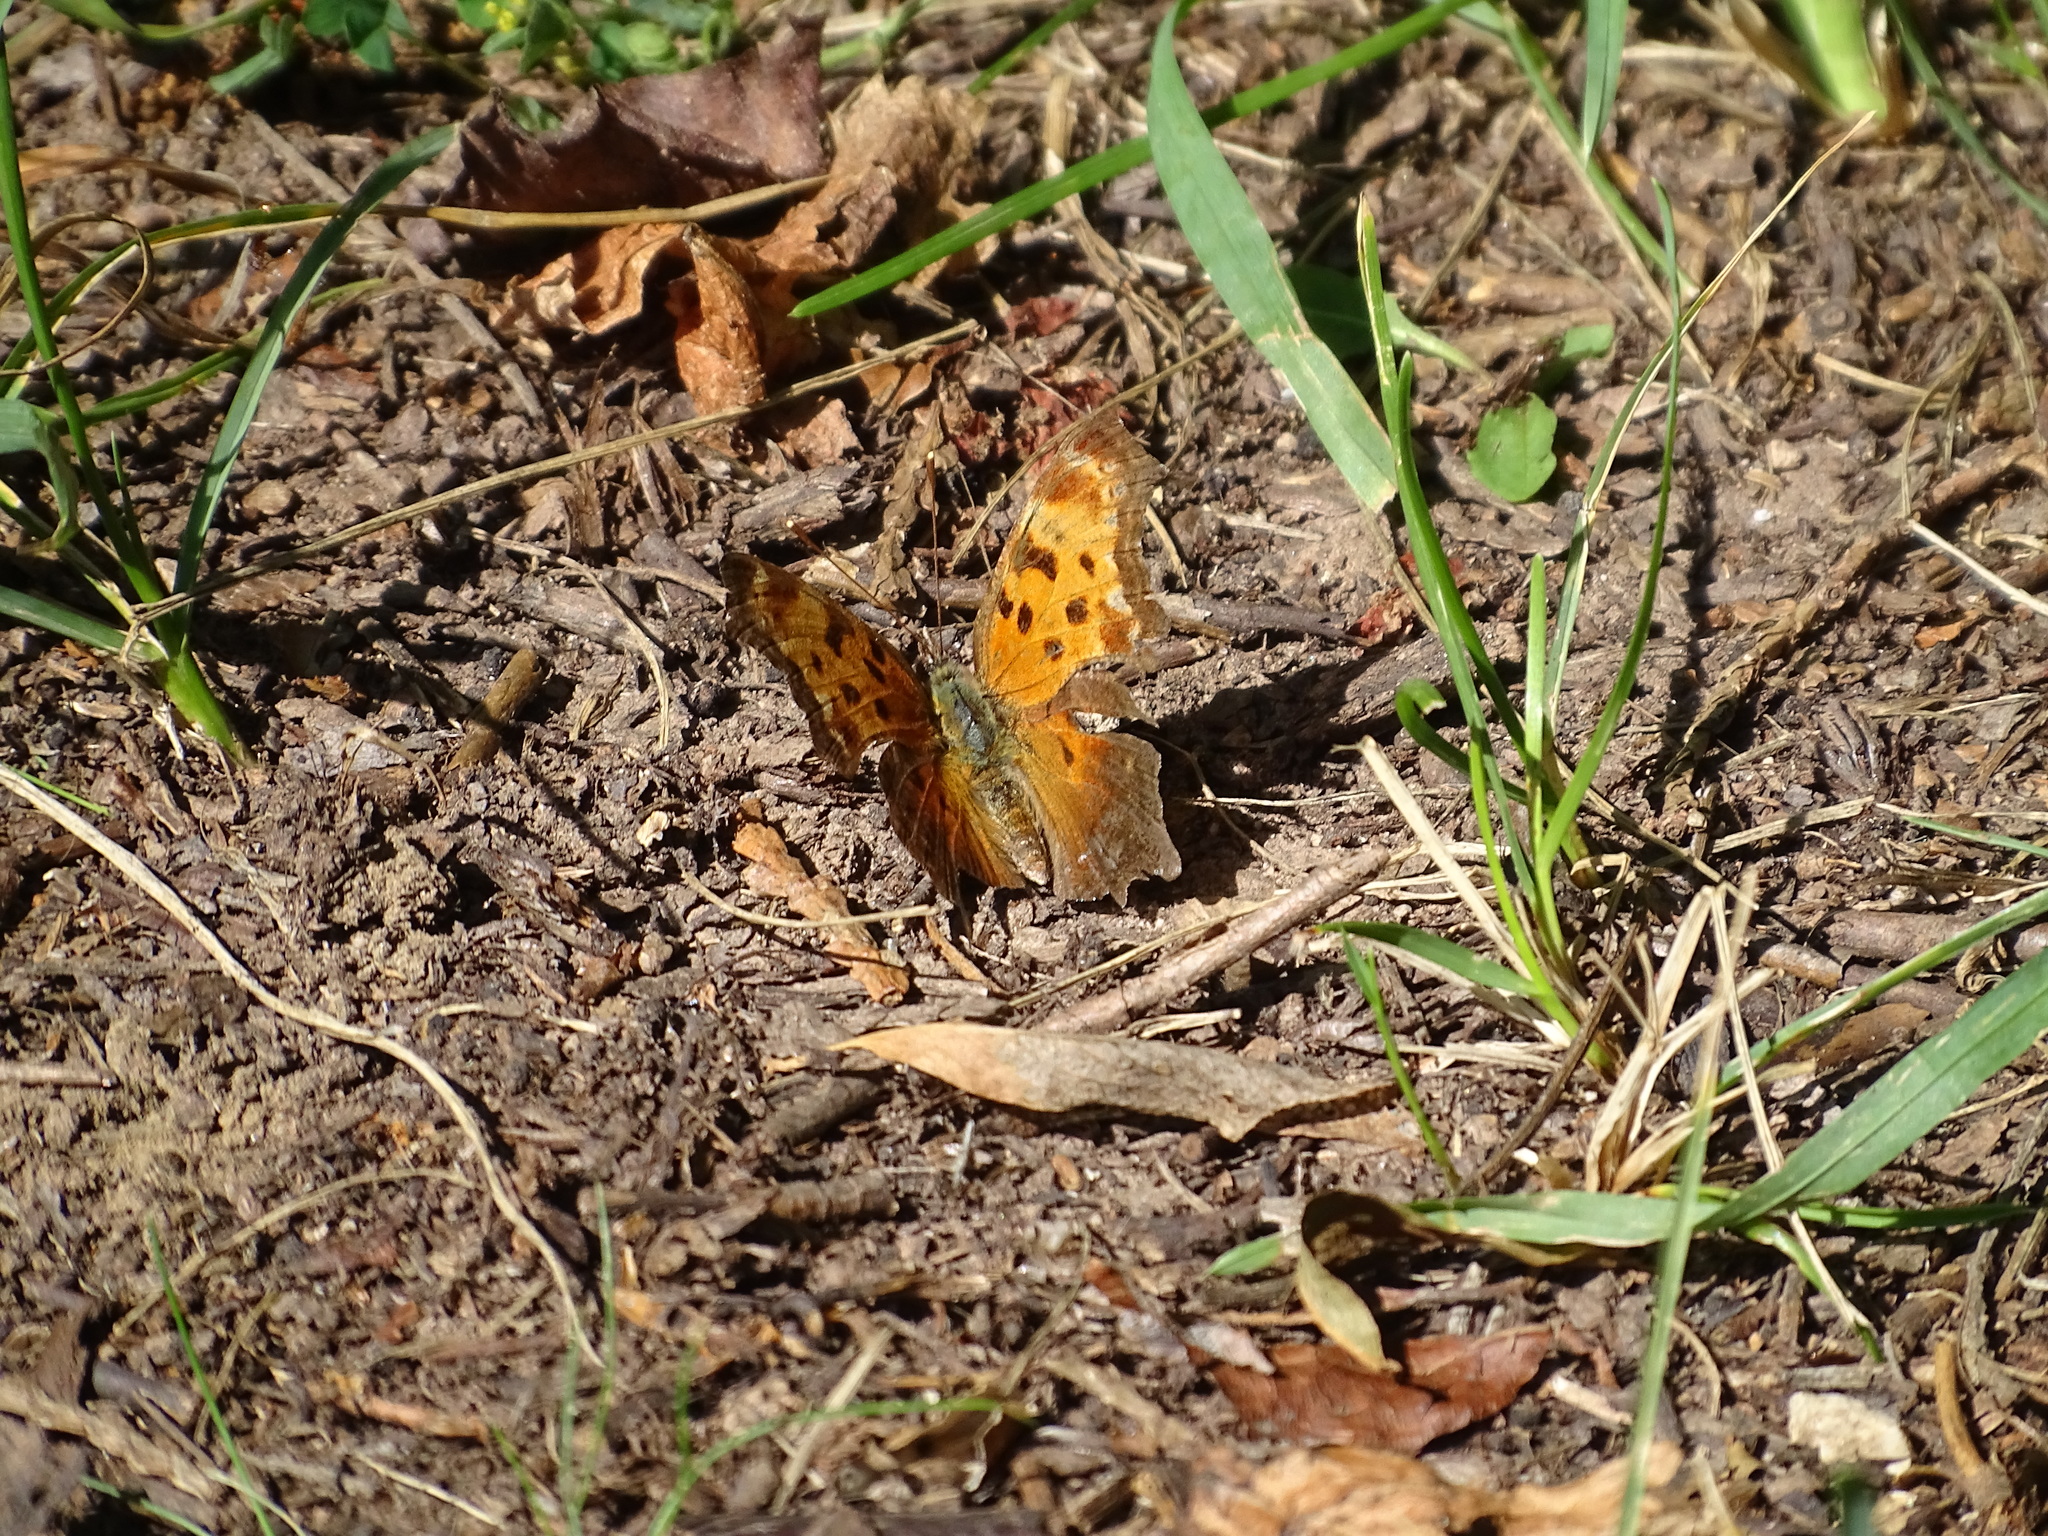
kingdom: Animalia
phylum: Arthropoda
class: Insecta
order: Lepidoptera
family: Nymphalidae
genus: Polygonia
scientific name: Polygonia progne
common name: Gray comma
